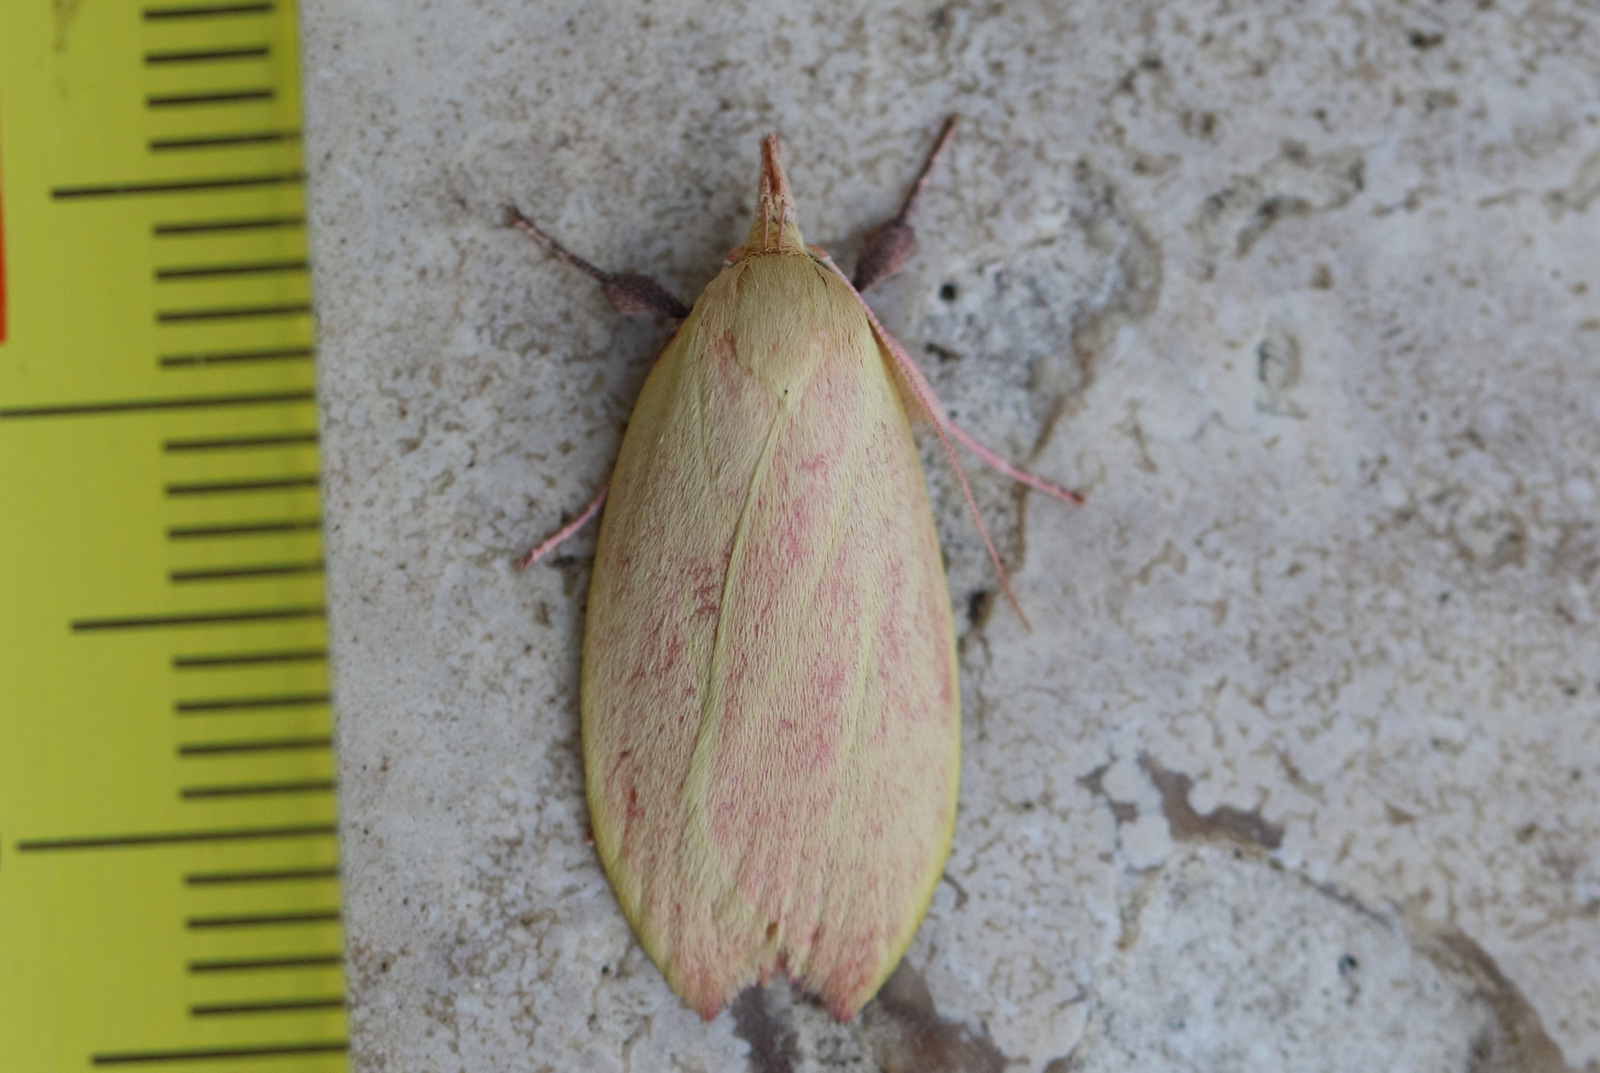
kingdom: Animalia
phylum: Arthropoda
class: Insecta
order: Lepidoptera
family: Oecophoridae
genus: Wingia
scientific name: Wingia rectiorella
